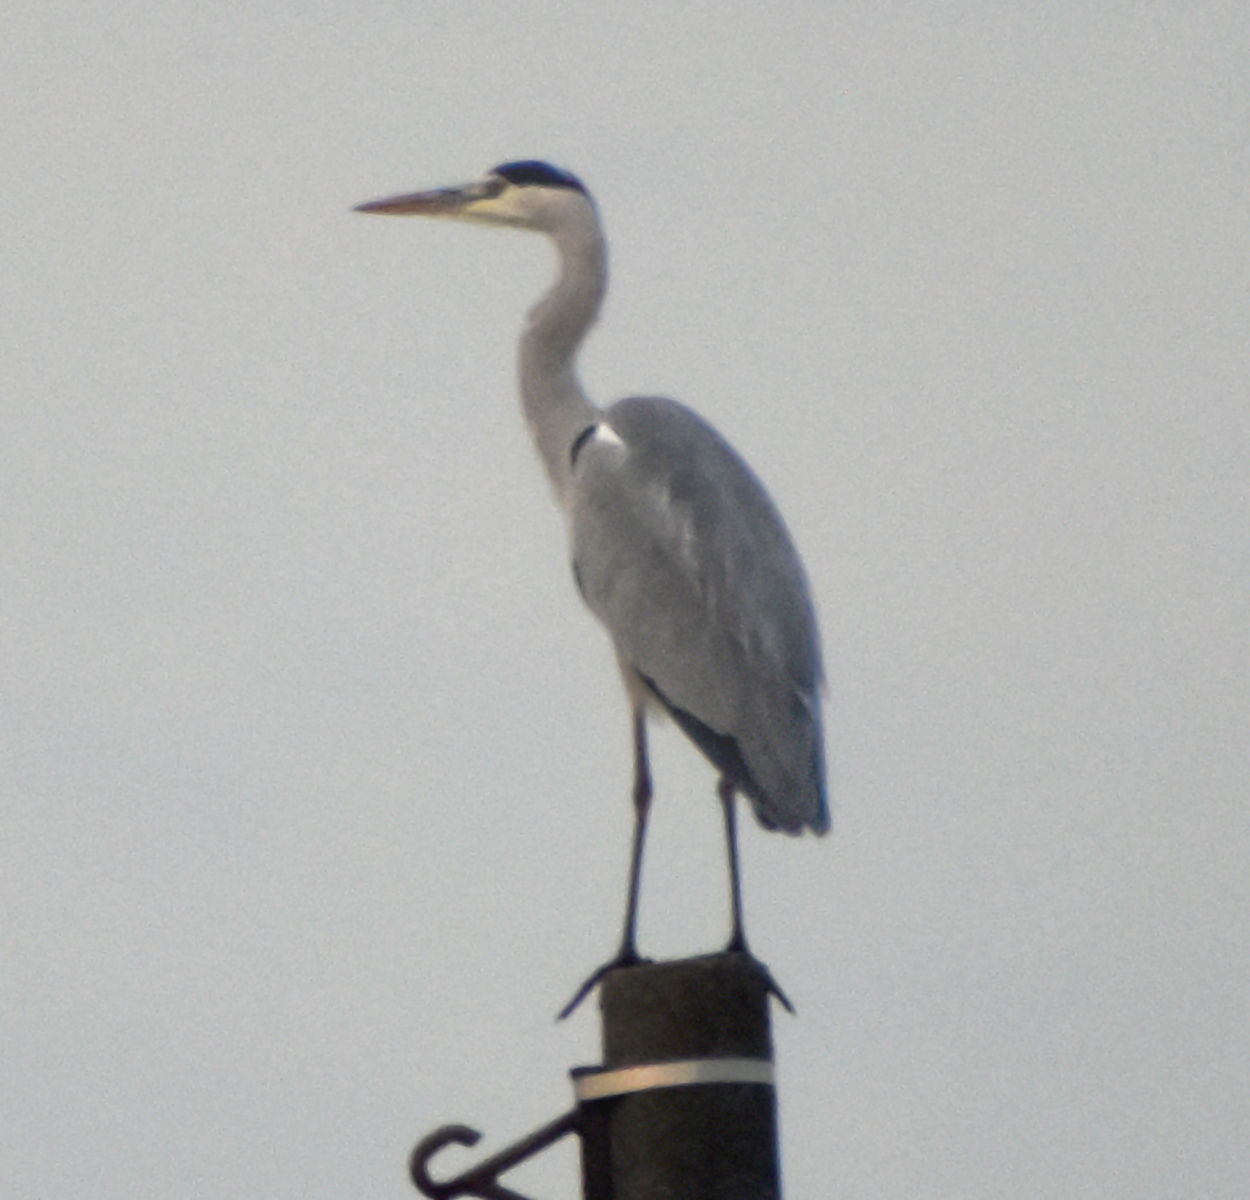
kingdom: Animalia
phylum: Chordata
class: Aves
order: Pelecaniformes
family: Ardeidae
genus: Ardea
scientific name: Ardea cinerea
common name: Grey heron
